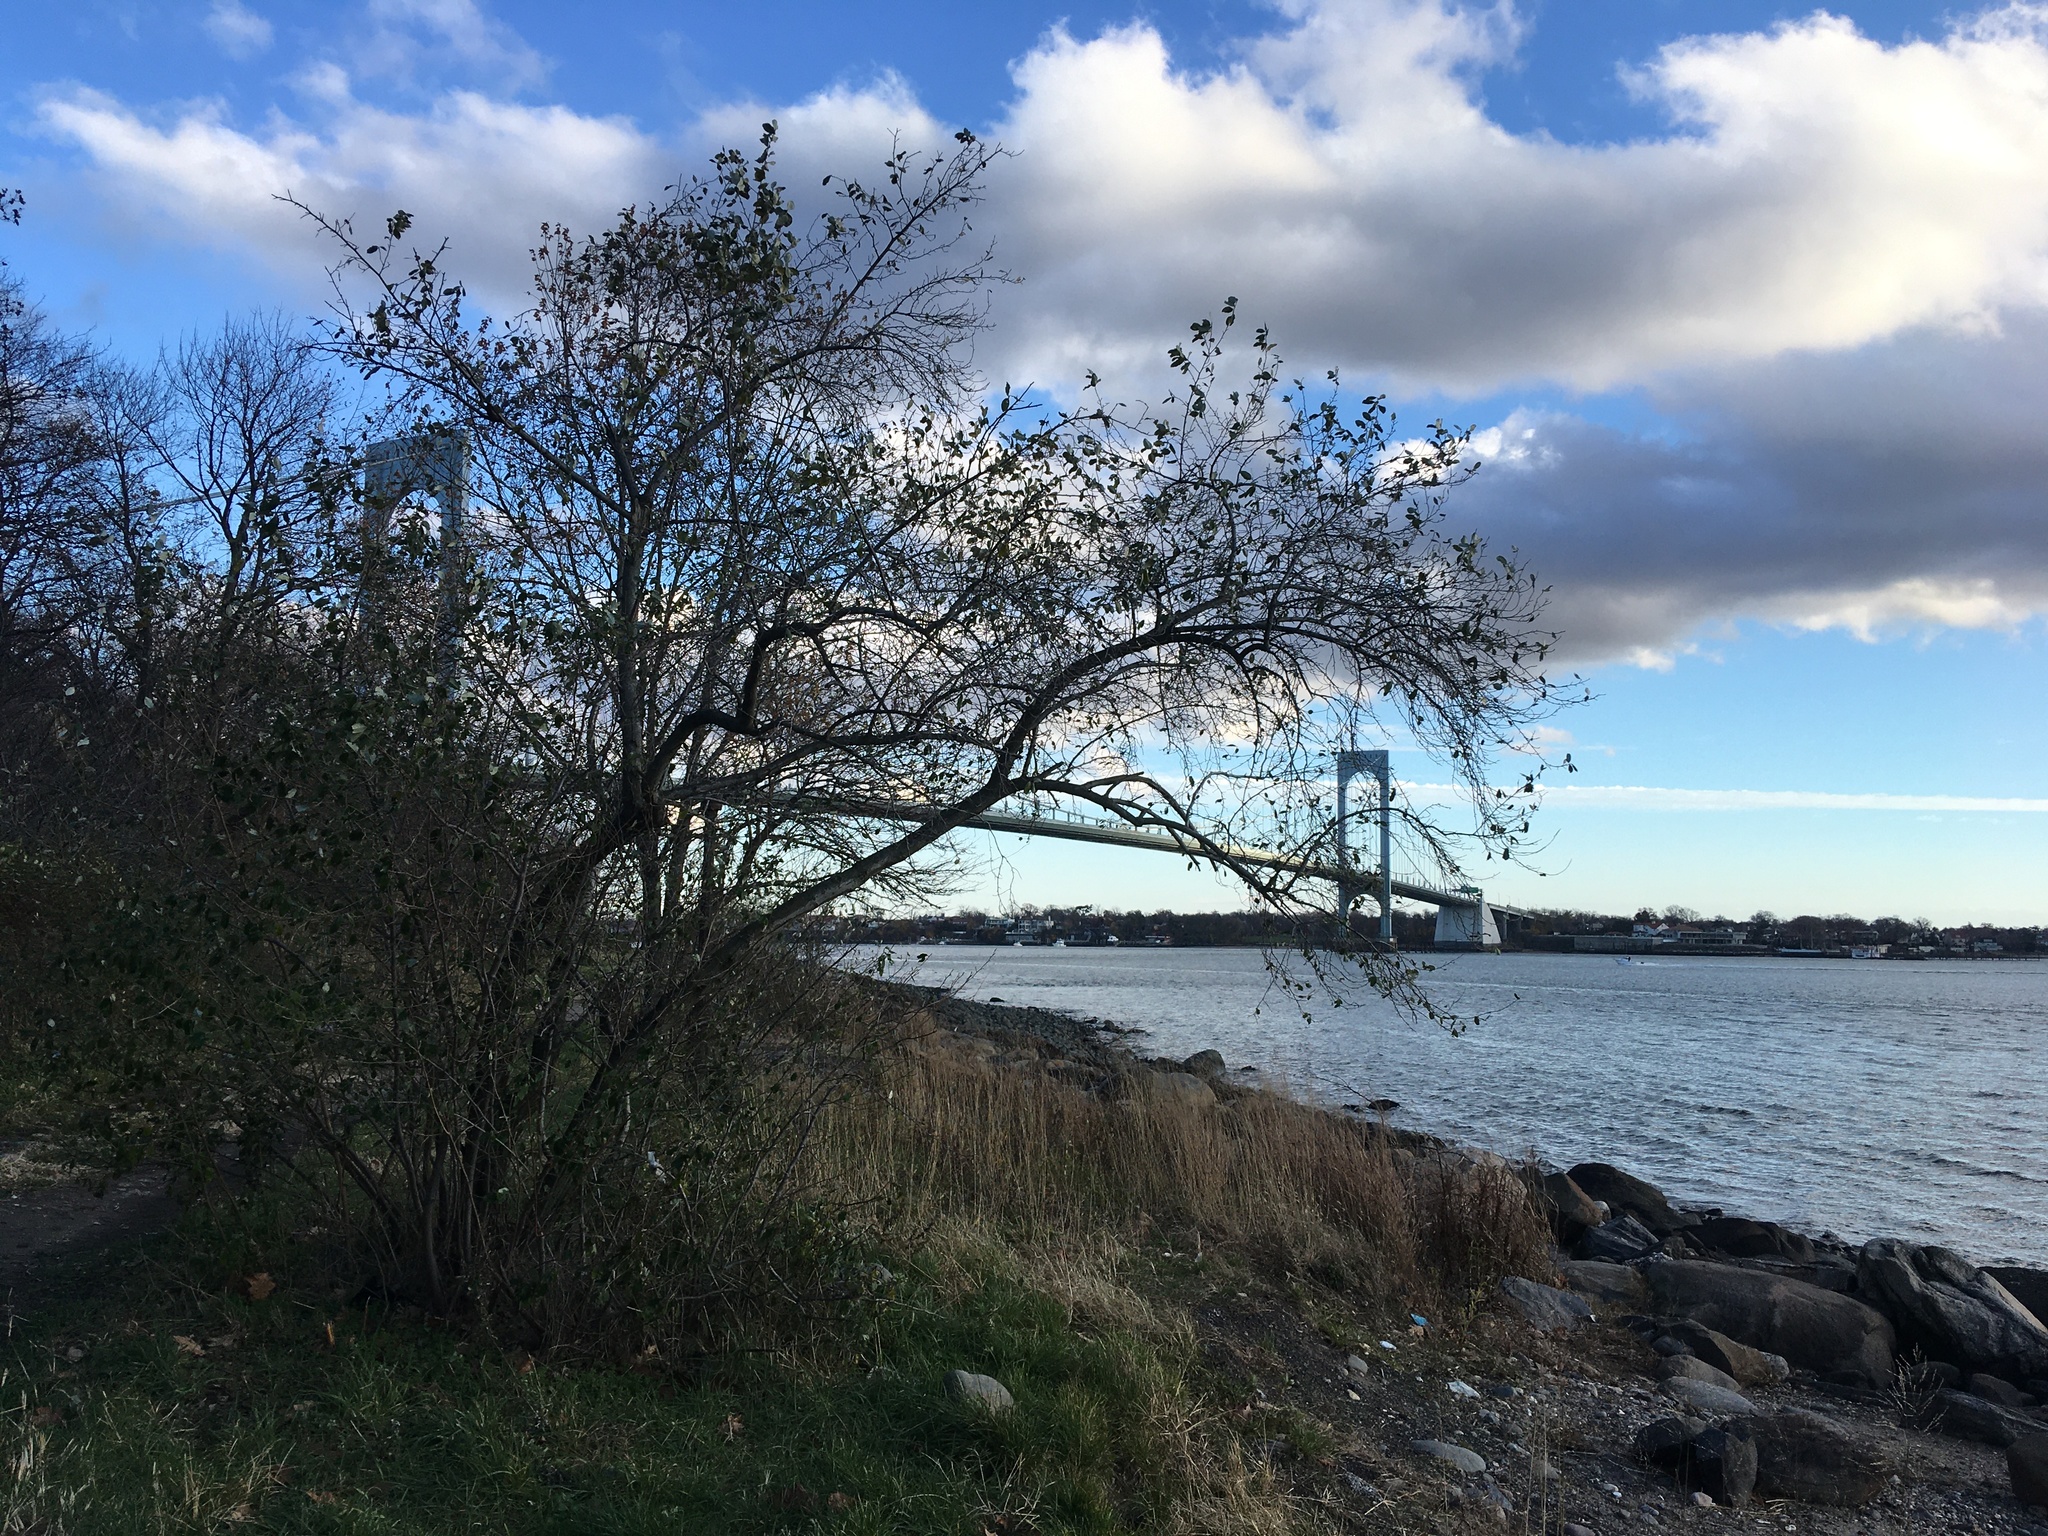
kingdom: Plantae
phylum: Tracheophyta
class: Magnoliopsida
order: Rosales
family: Elaeagnaceae
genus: Elaeagnus
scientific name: Elaeagnus umbellata
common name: Autumn olive
